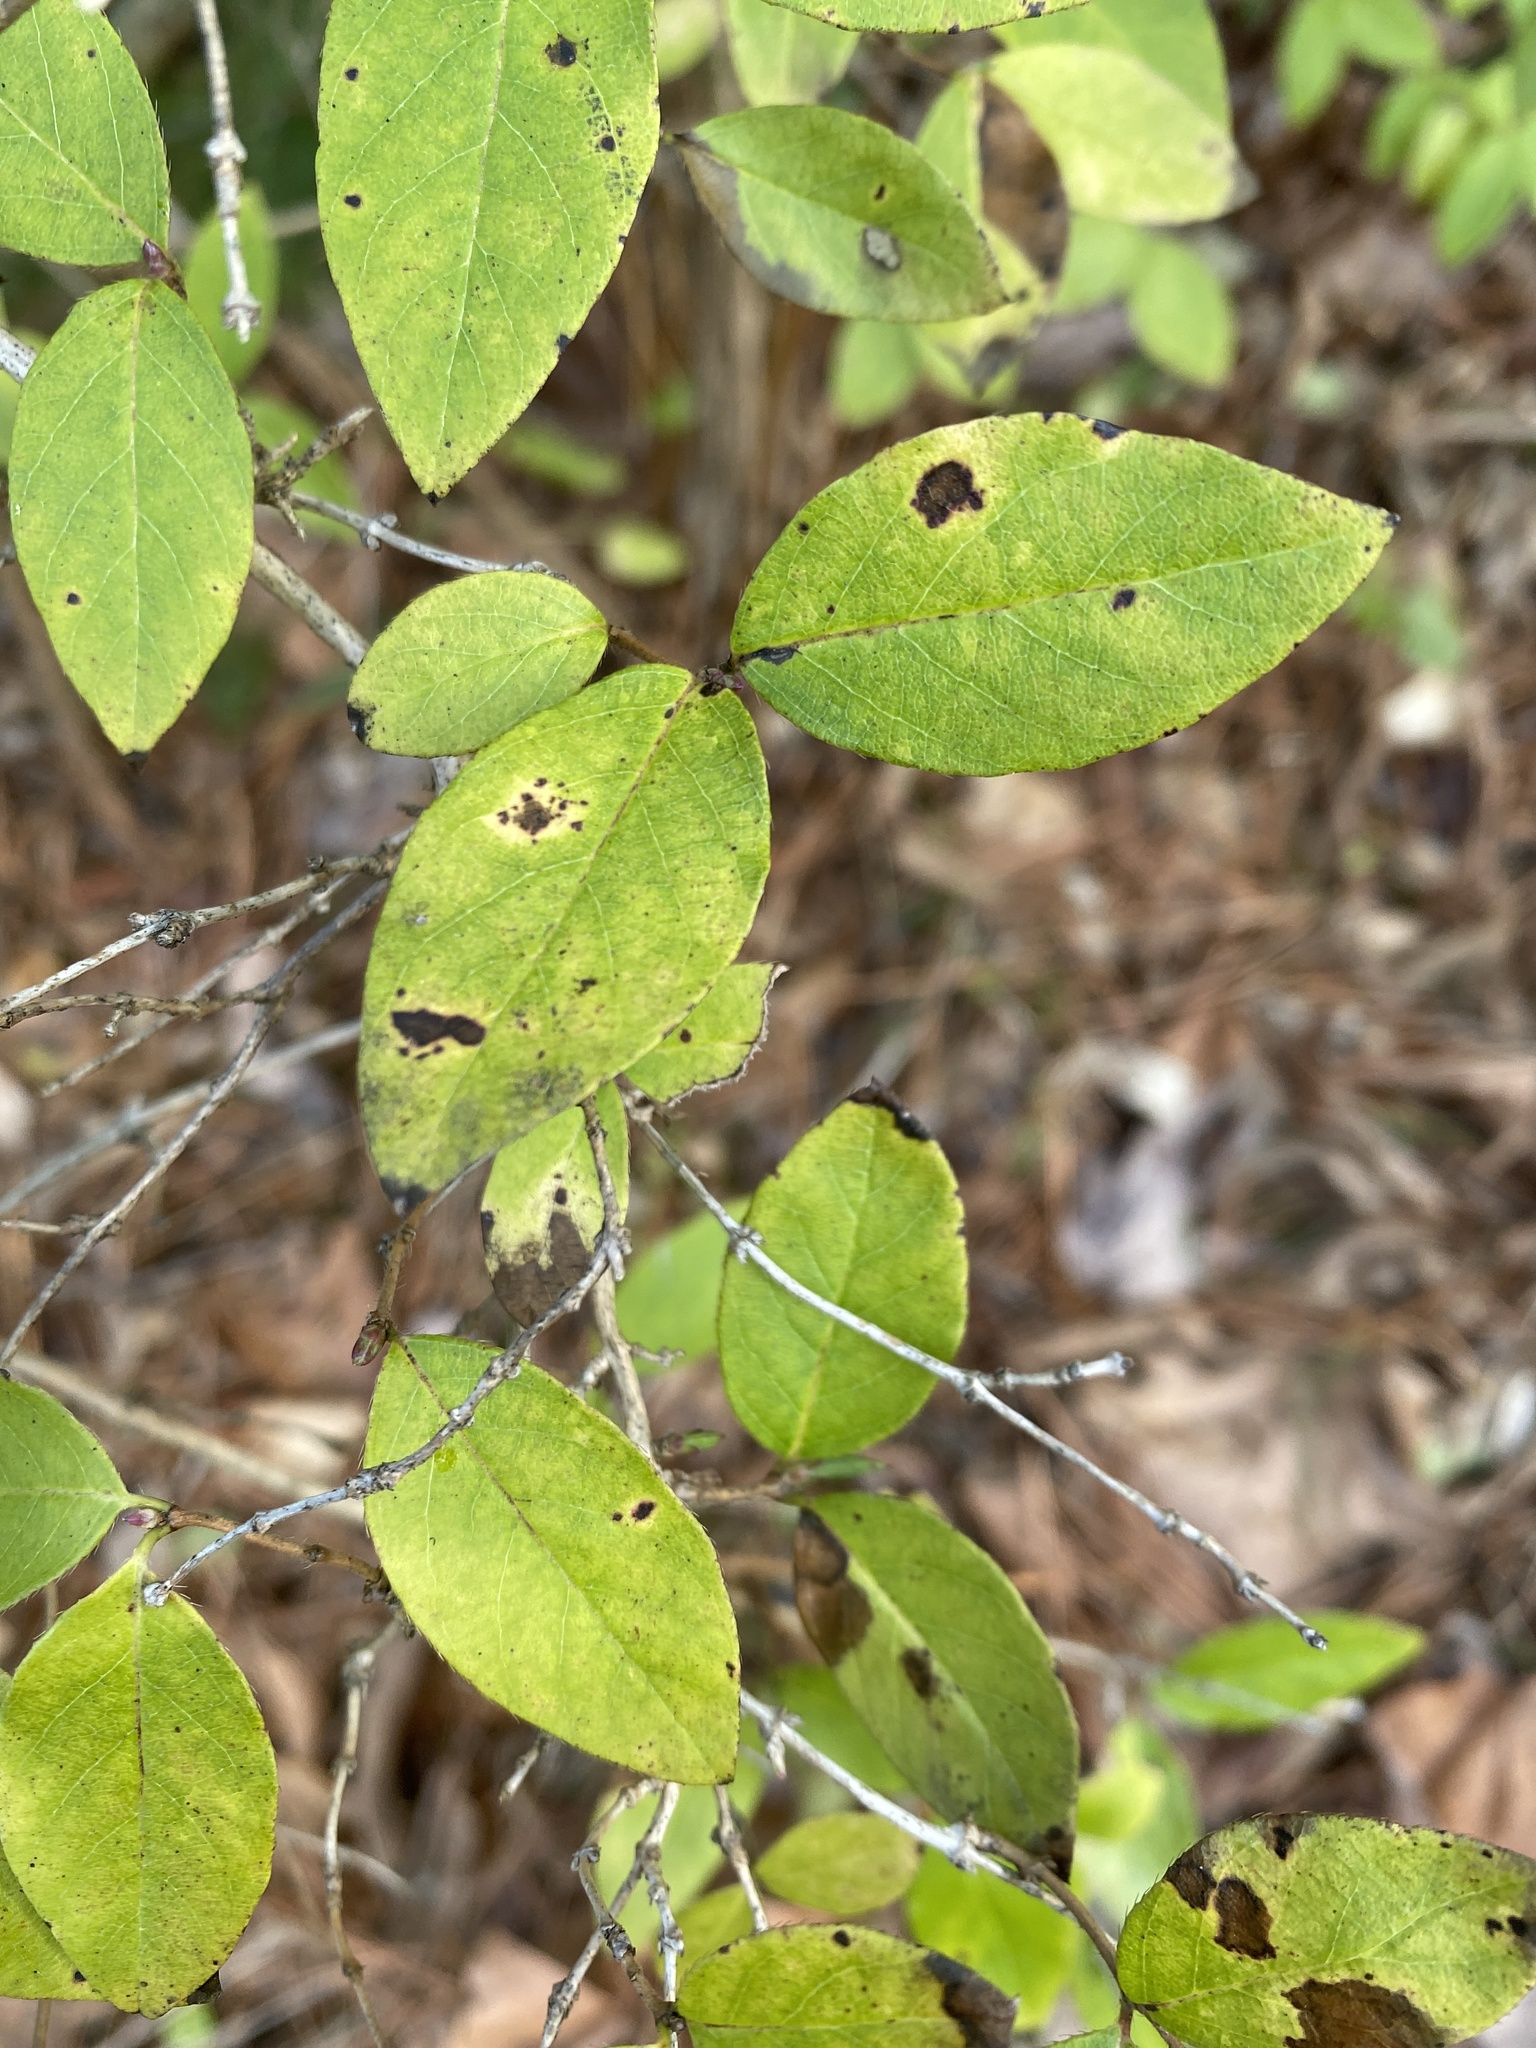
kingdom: Plantae
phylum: Tracheophyta
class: Magnoliopsida
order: Dipsacales
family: Caprifoliaceae
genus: Lonicera
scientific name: Lonicera fragrantissima
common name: Fragrant honeysuckle
